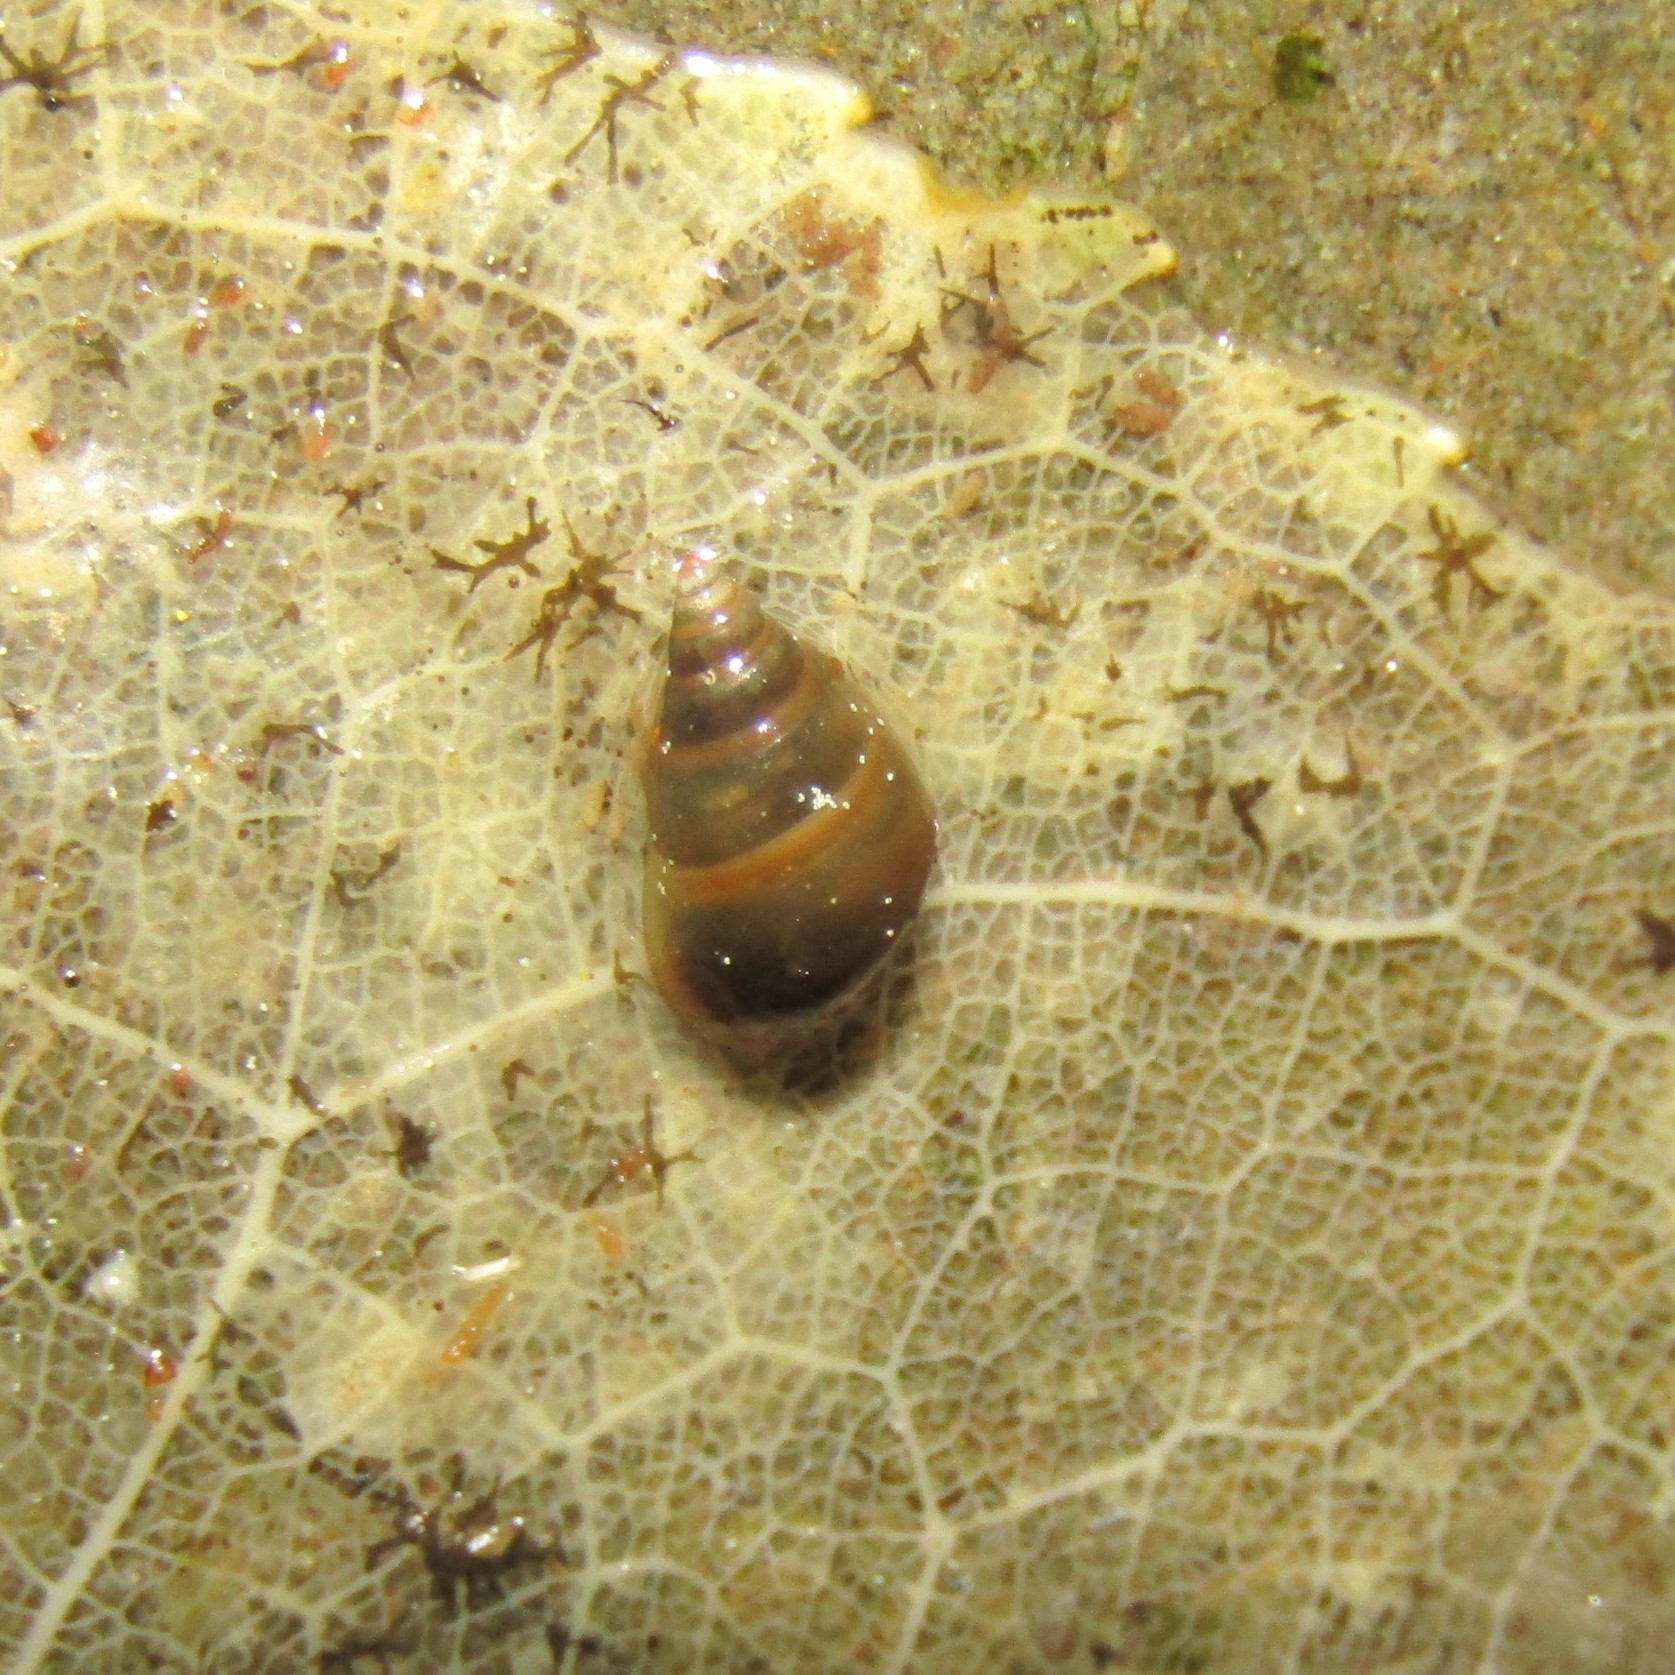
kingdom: Animalia
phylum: Mollusca
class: Gastropoda
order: Littorinimorpha
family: Tateidae
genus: Potamopyrgus
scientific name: Potamopyrgus antipodarum
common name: Jenkins' spire snail
